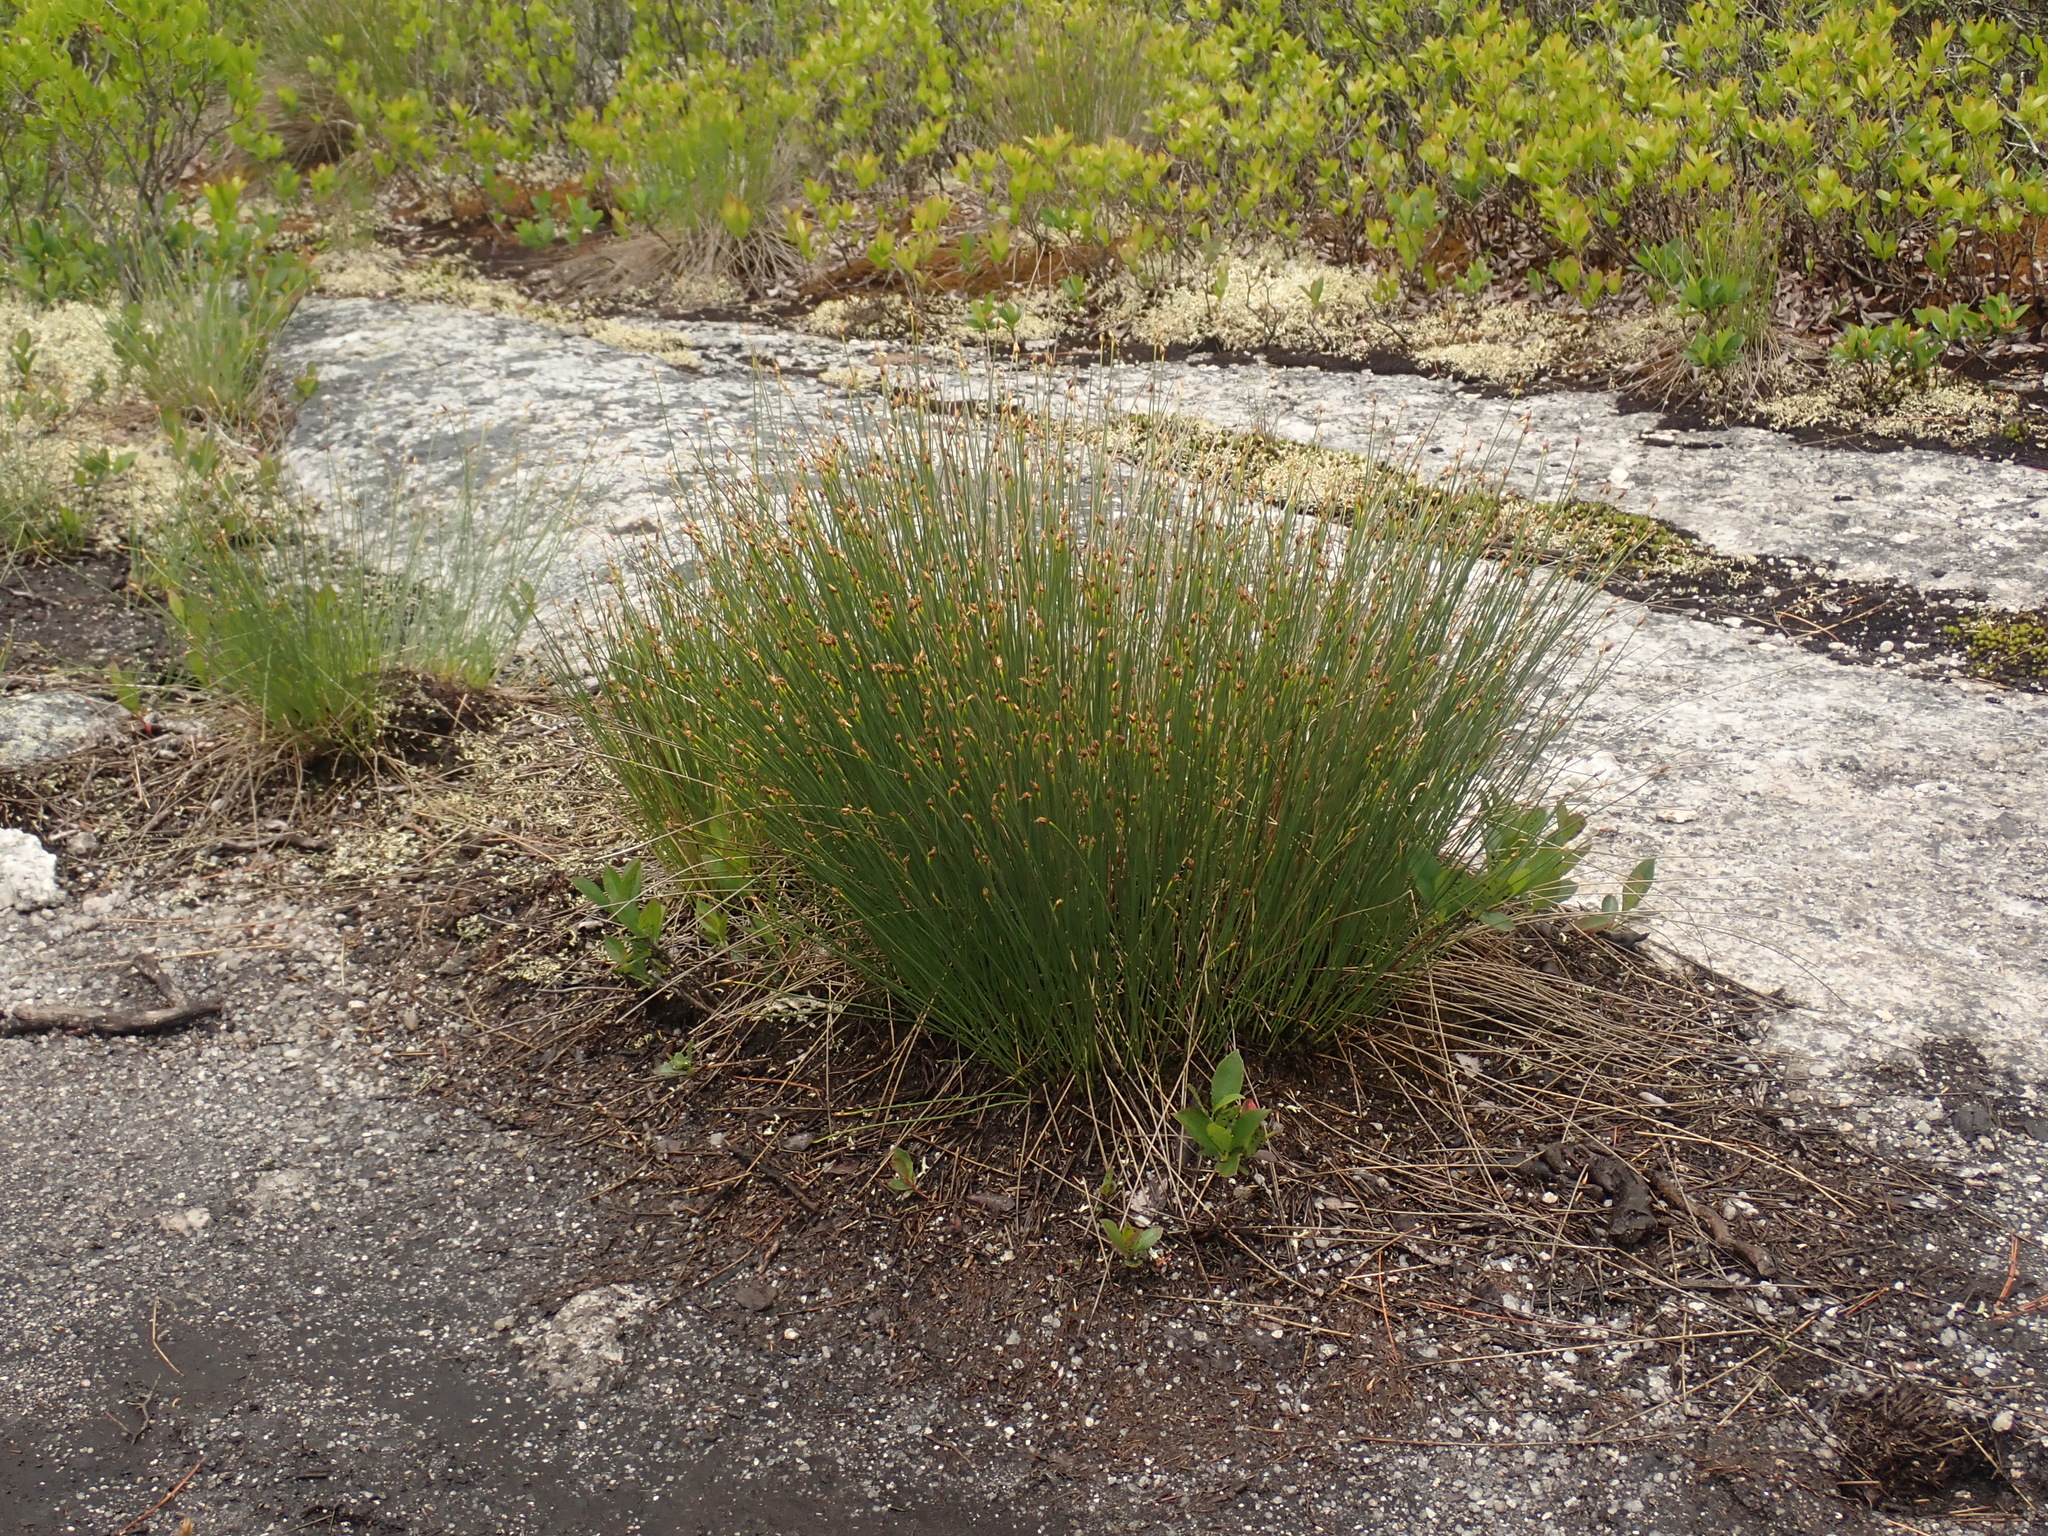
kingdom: Plantae
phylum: Tracheophyta
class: Liliopsida
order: Poales
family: Cyperaceae
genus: Trichophorum
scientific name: Trichophorum cespitosum
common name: Cespitose bulrush
